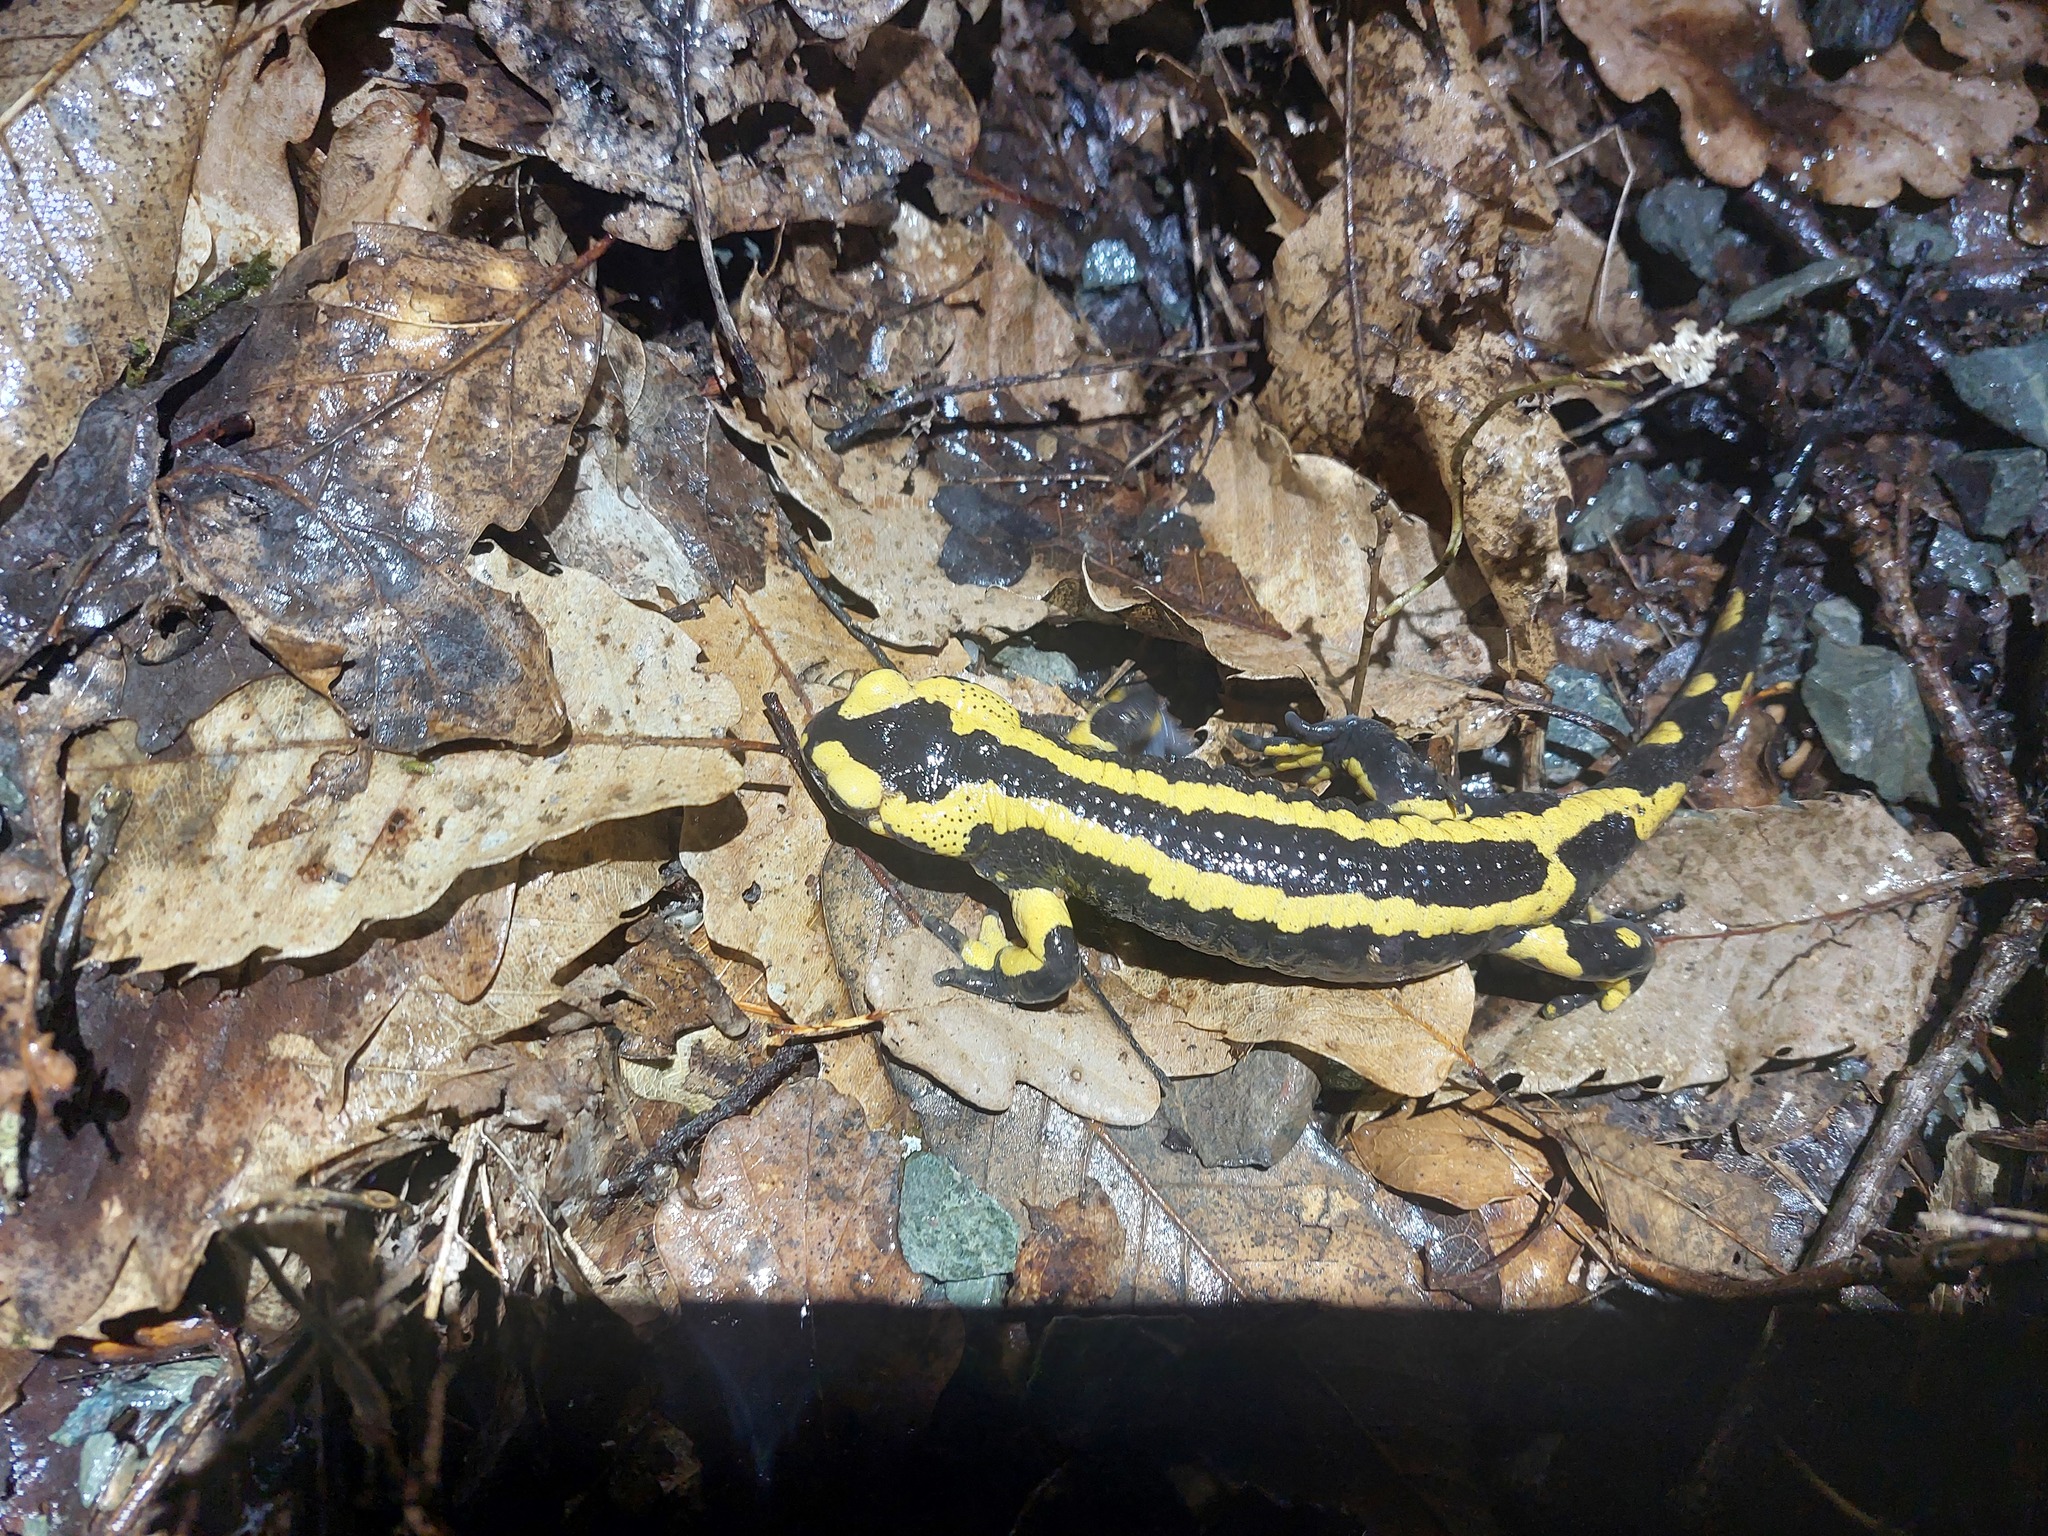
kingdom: Animalia
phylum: Chordata
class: Amphibia
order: Caudata
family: Salamandridae
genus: Salamandra
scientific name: Salamandra salamandra
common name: Fire salamander
